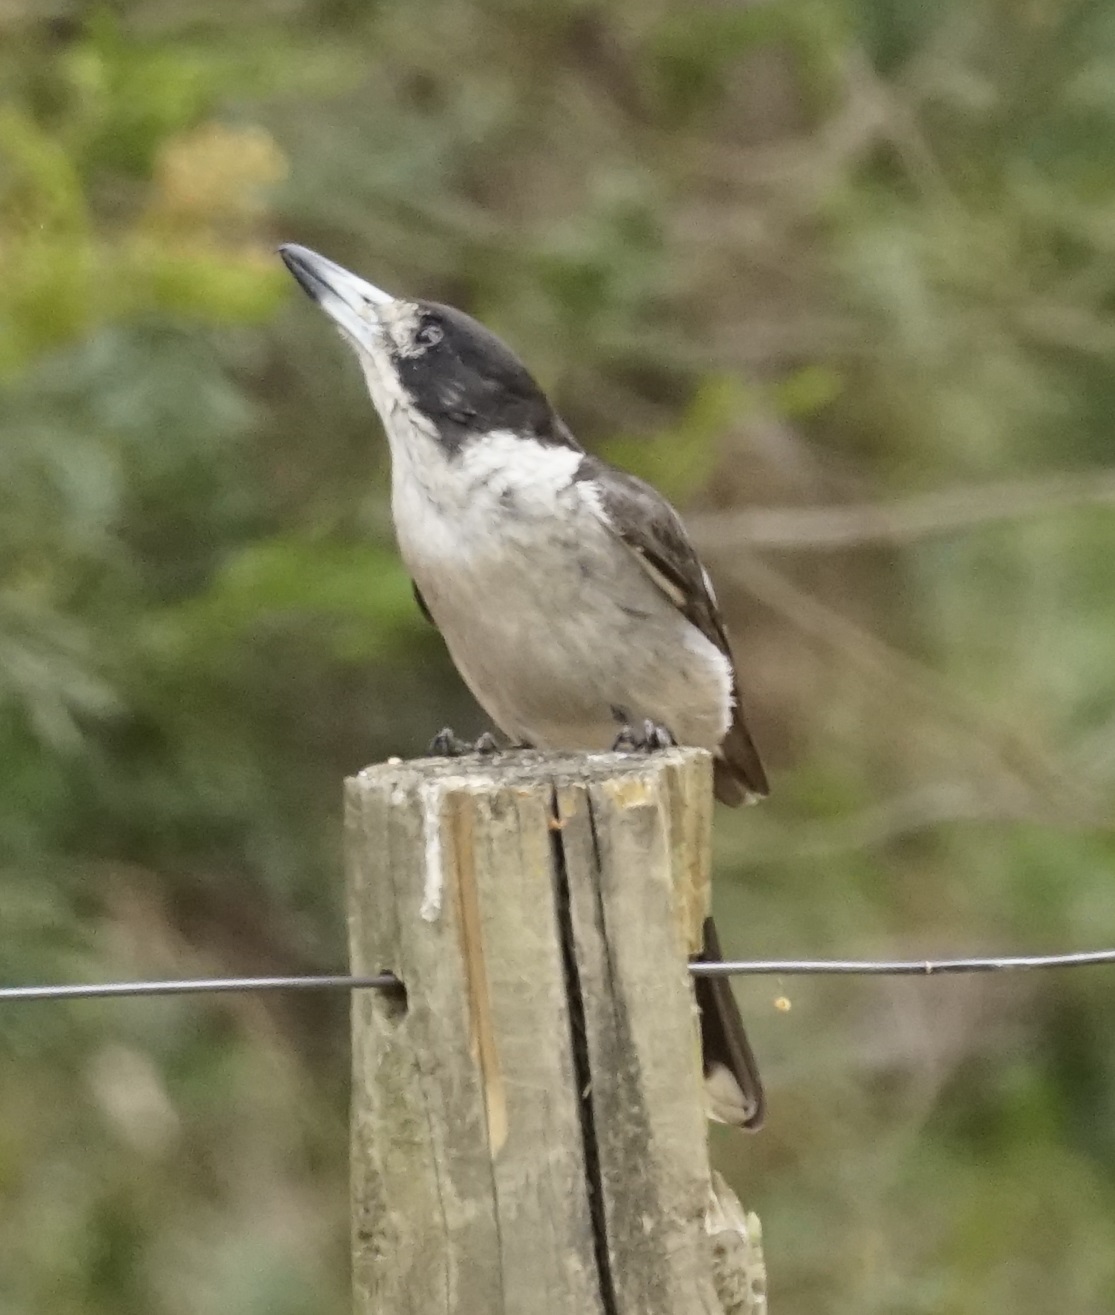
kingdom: Animalia
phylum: Chordata
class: Aves
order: Passeriformes
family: Cracticidae
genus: Cracticus
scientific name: Cracticus torquatus
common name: Grey butcherbird
